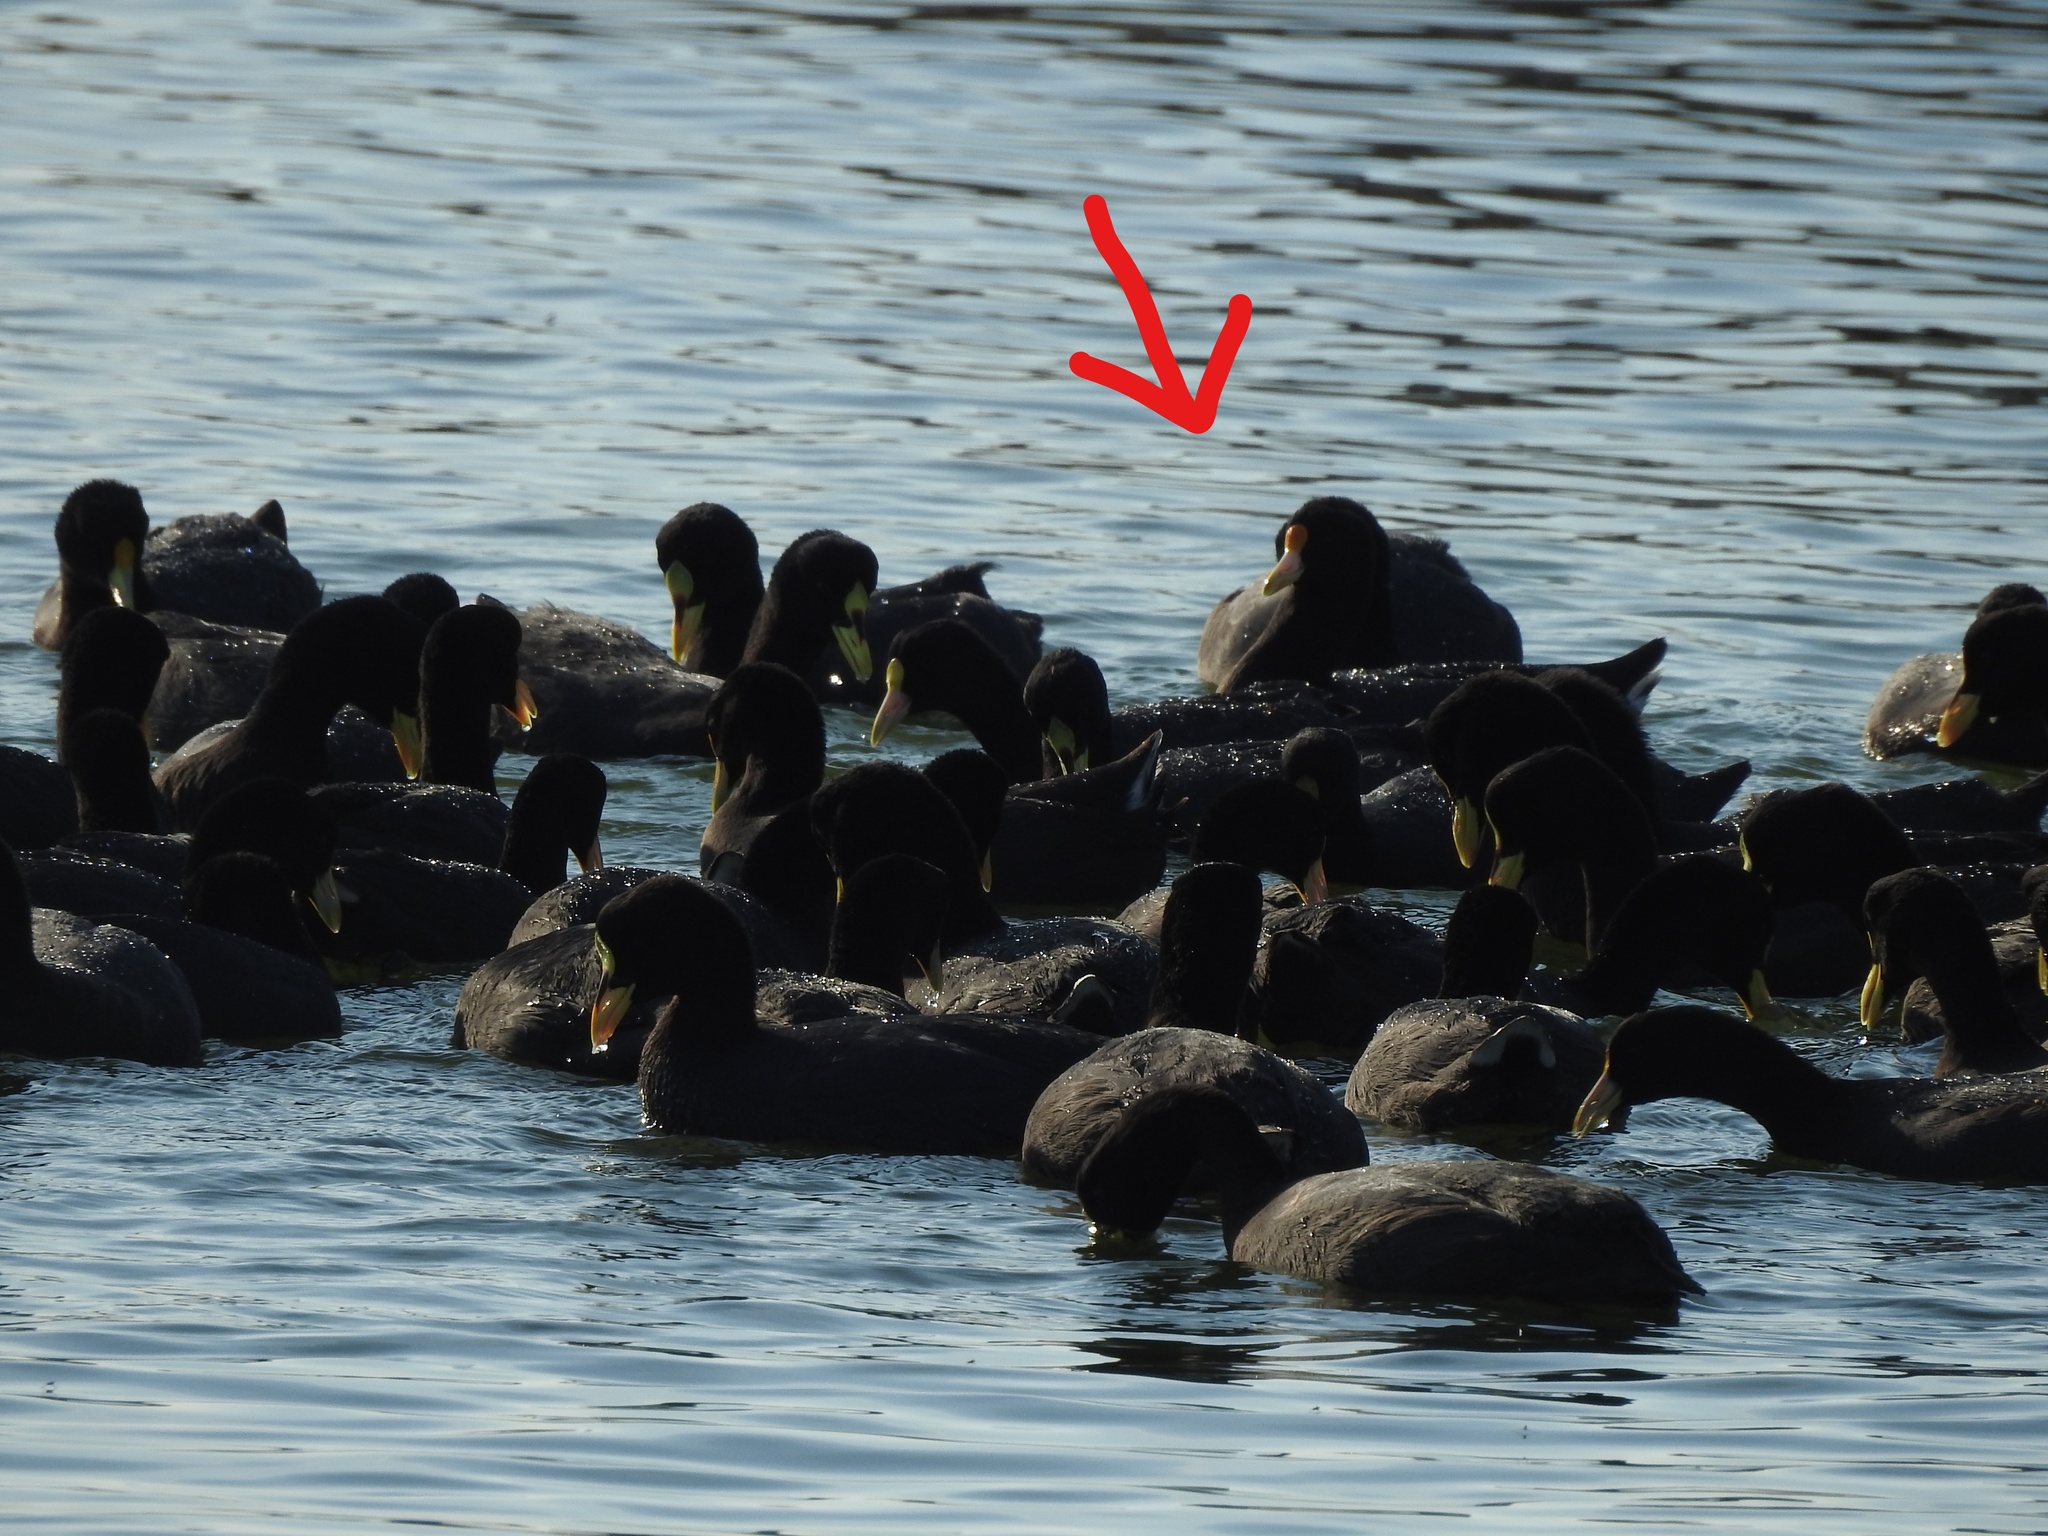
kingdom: Animalia
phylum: Chordata
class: Aves
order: Gruiformes
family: Rallidae
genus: Fulica
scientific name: Fulica leucoptera
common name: White-winged coot
